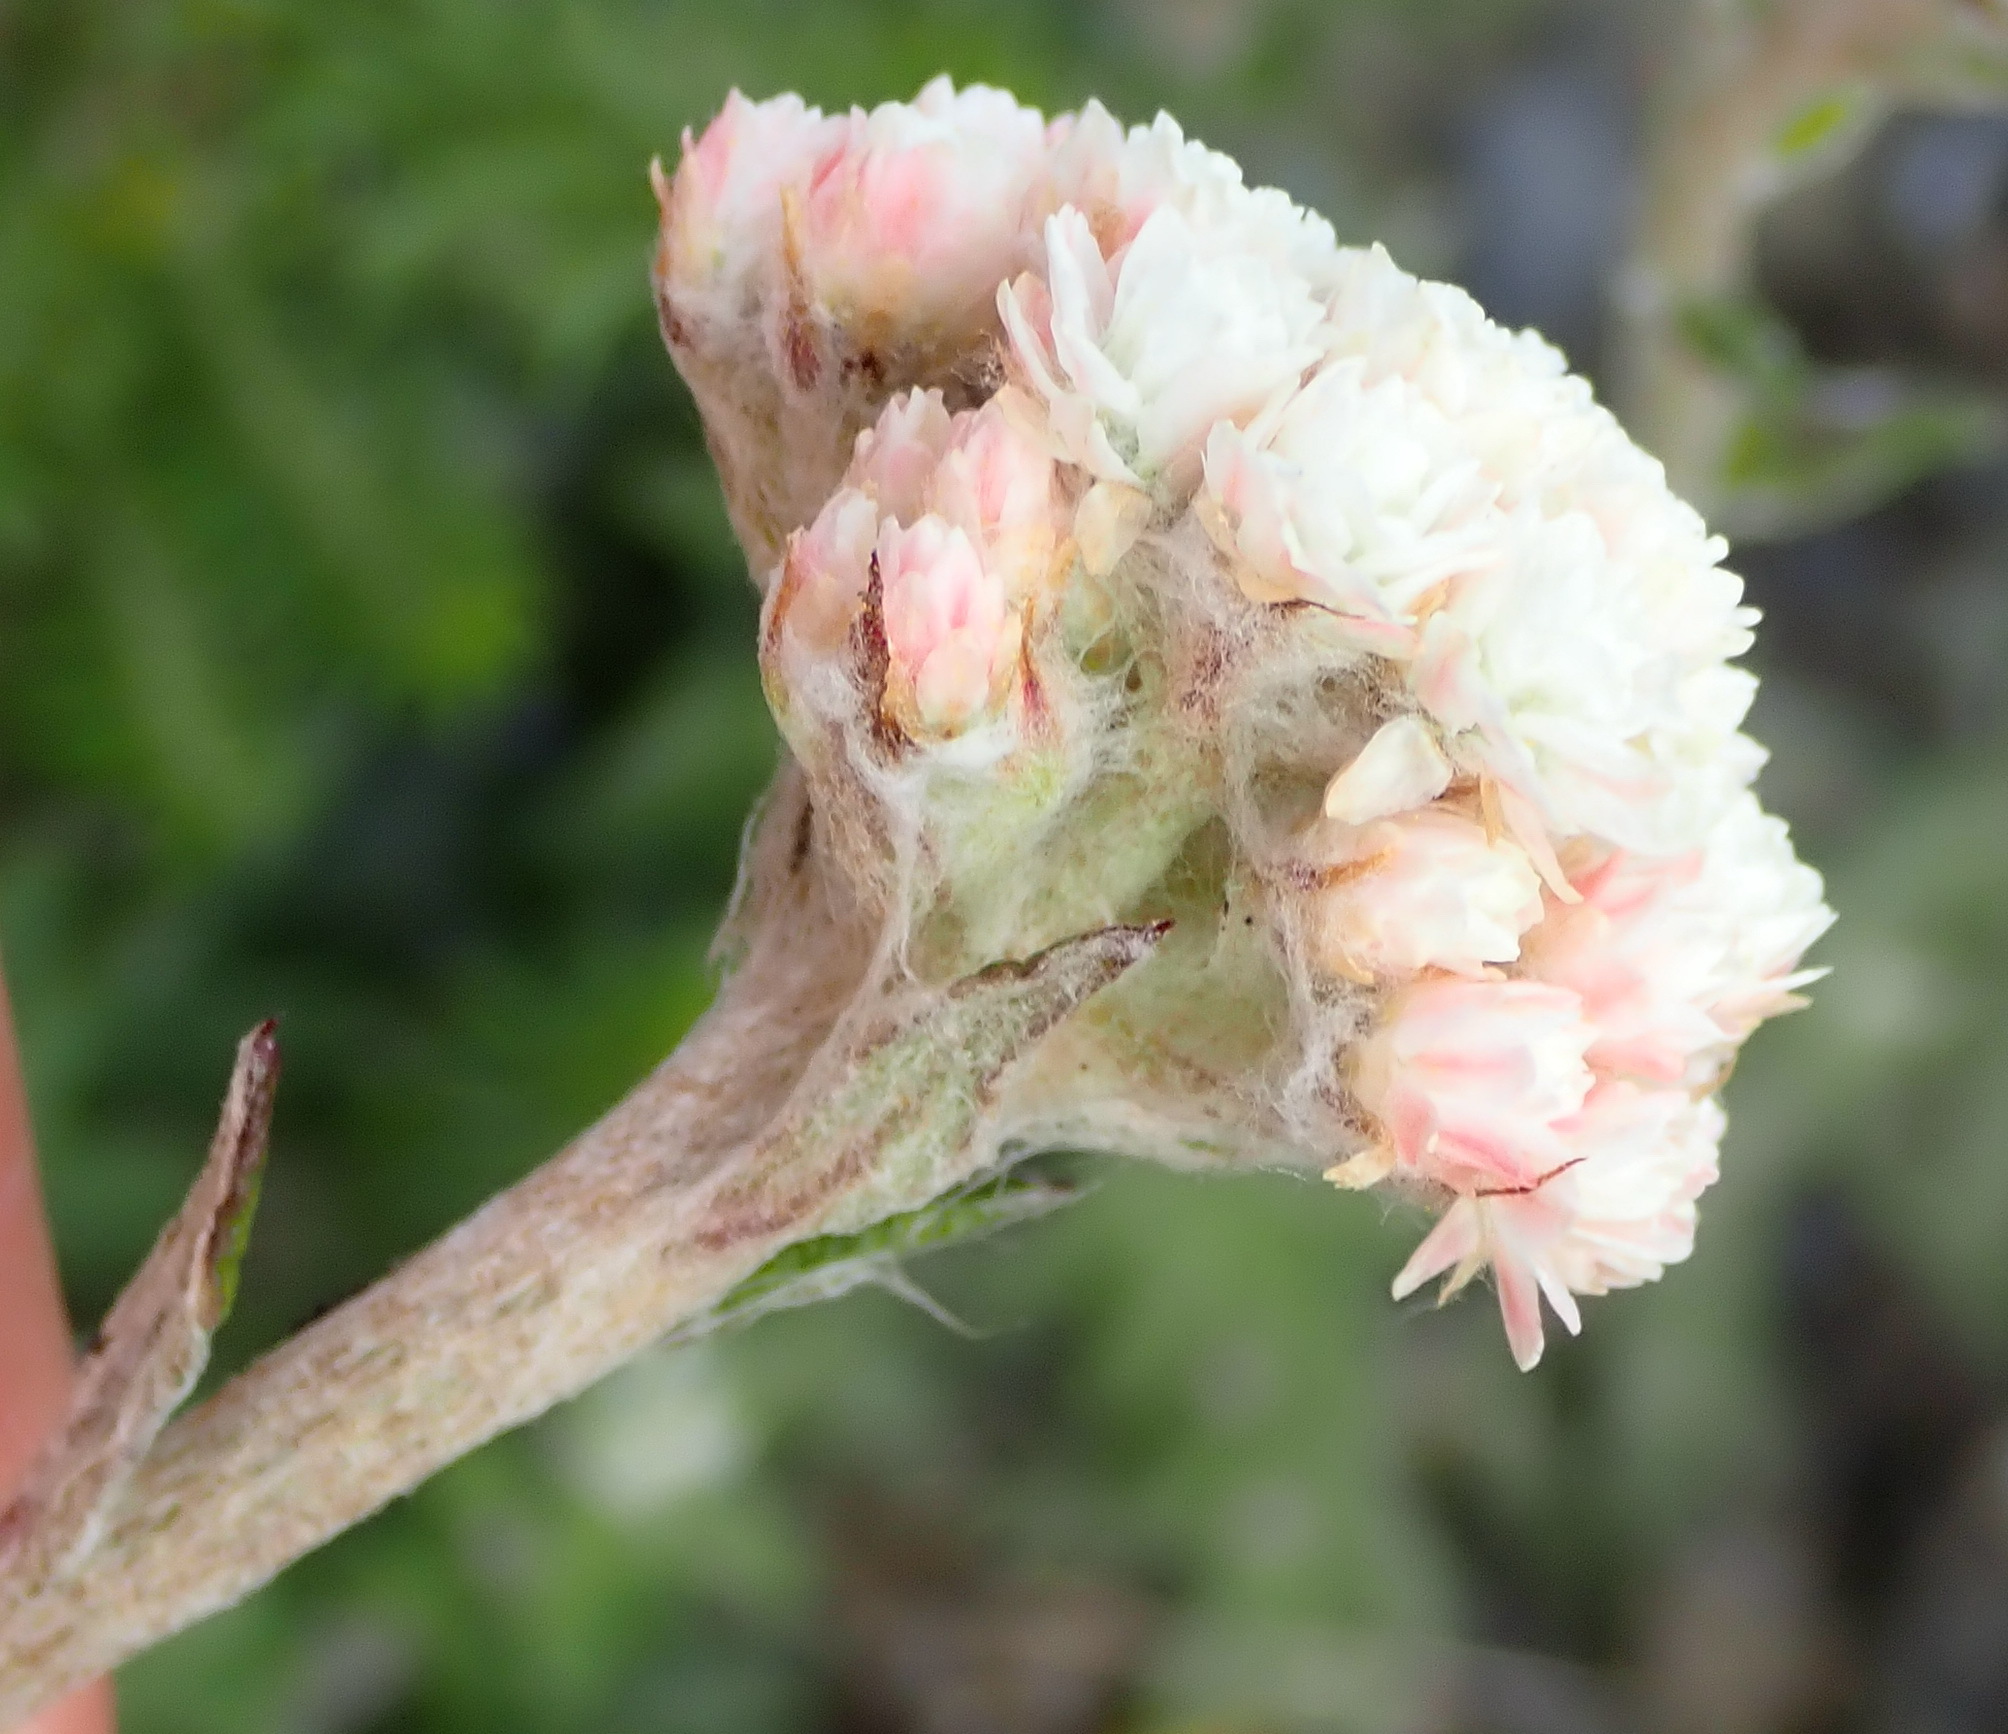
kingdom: Plantae
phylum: Tracheophyta
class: Magnoliopsida
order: Asterales
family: Asteraceae
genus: Helichrysum
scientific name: Helichrysum felinum
